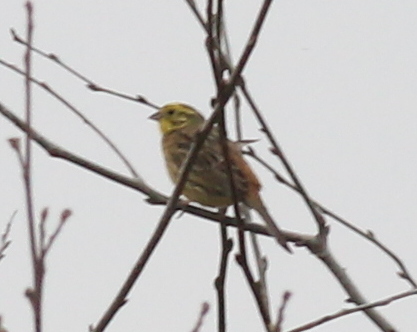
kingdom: Animalia
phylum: Chordata
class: Aves
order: Passeriformes
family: Emberizidae
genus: Emberiza
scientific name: Emberiza citrinella
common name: Yellowhammer
